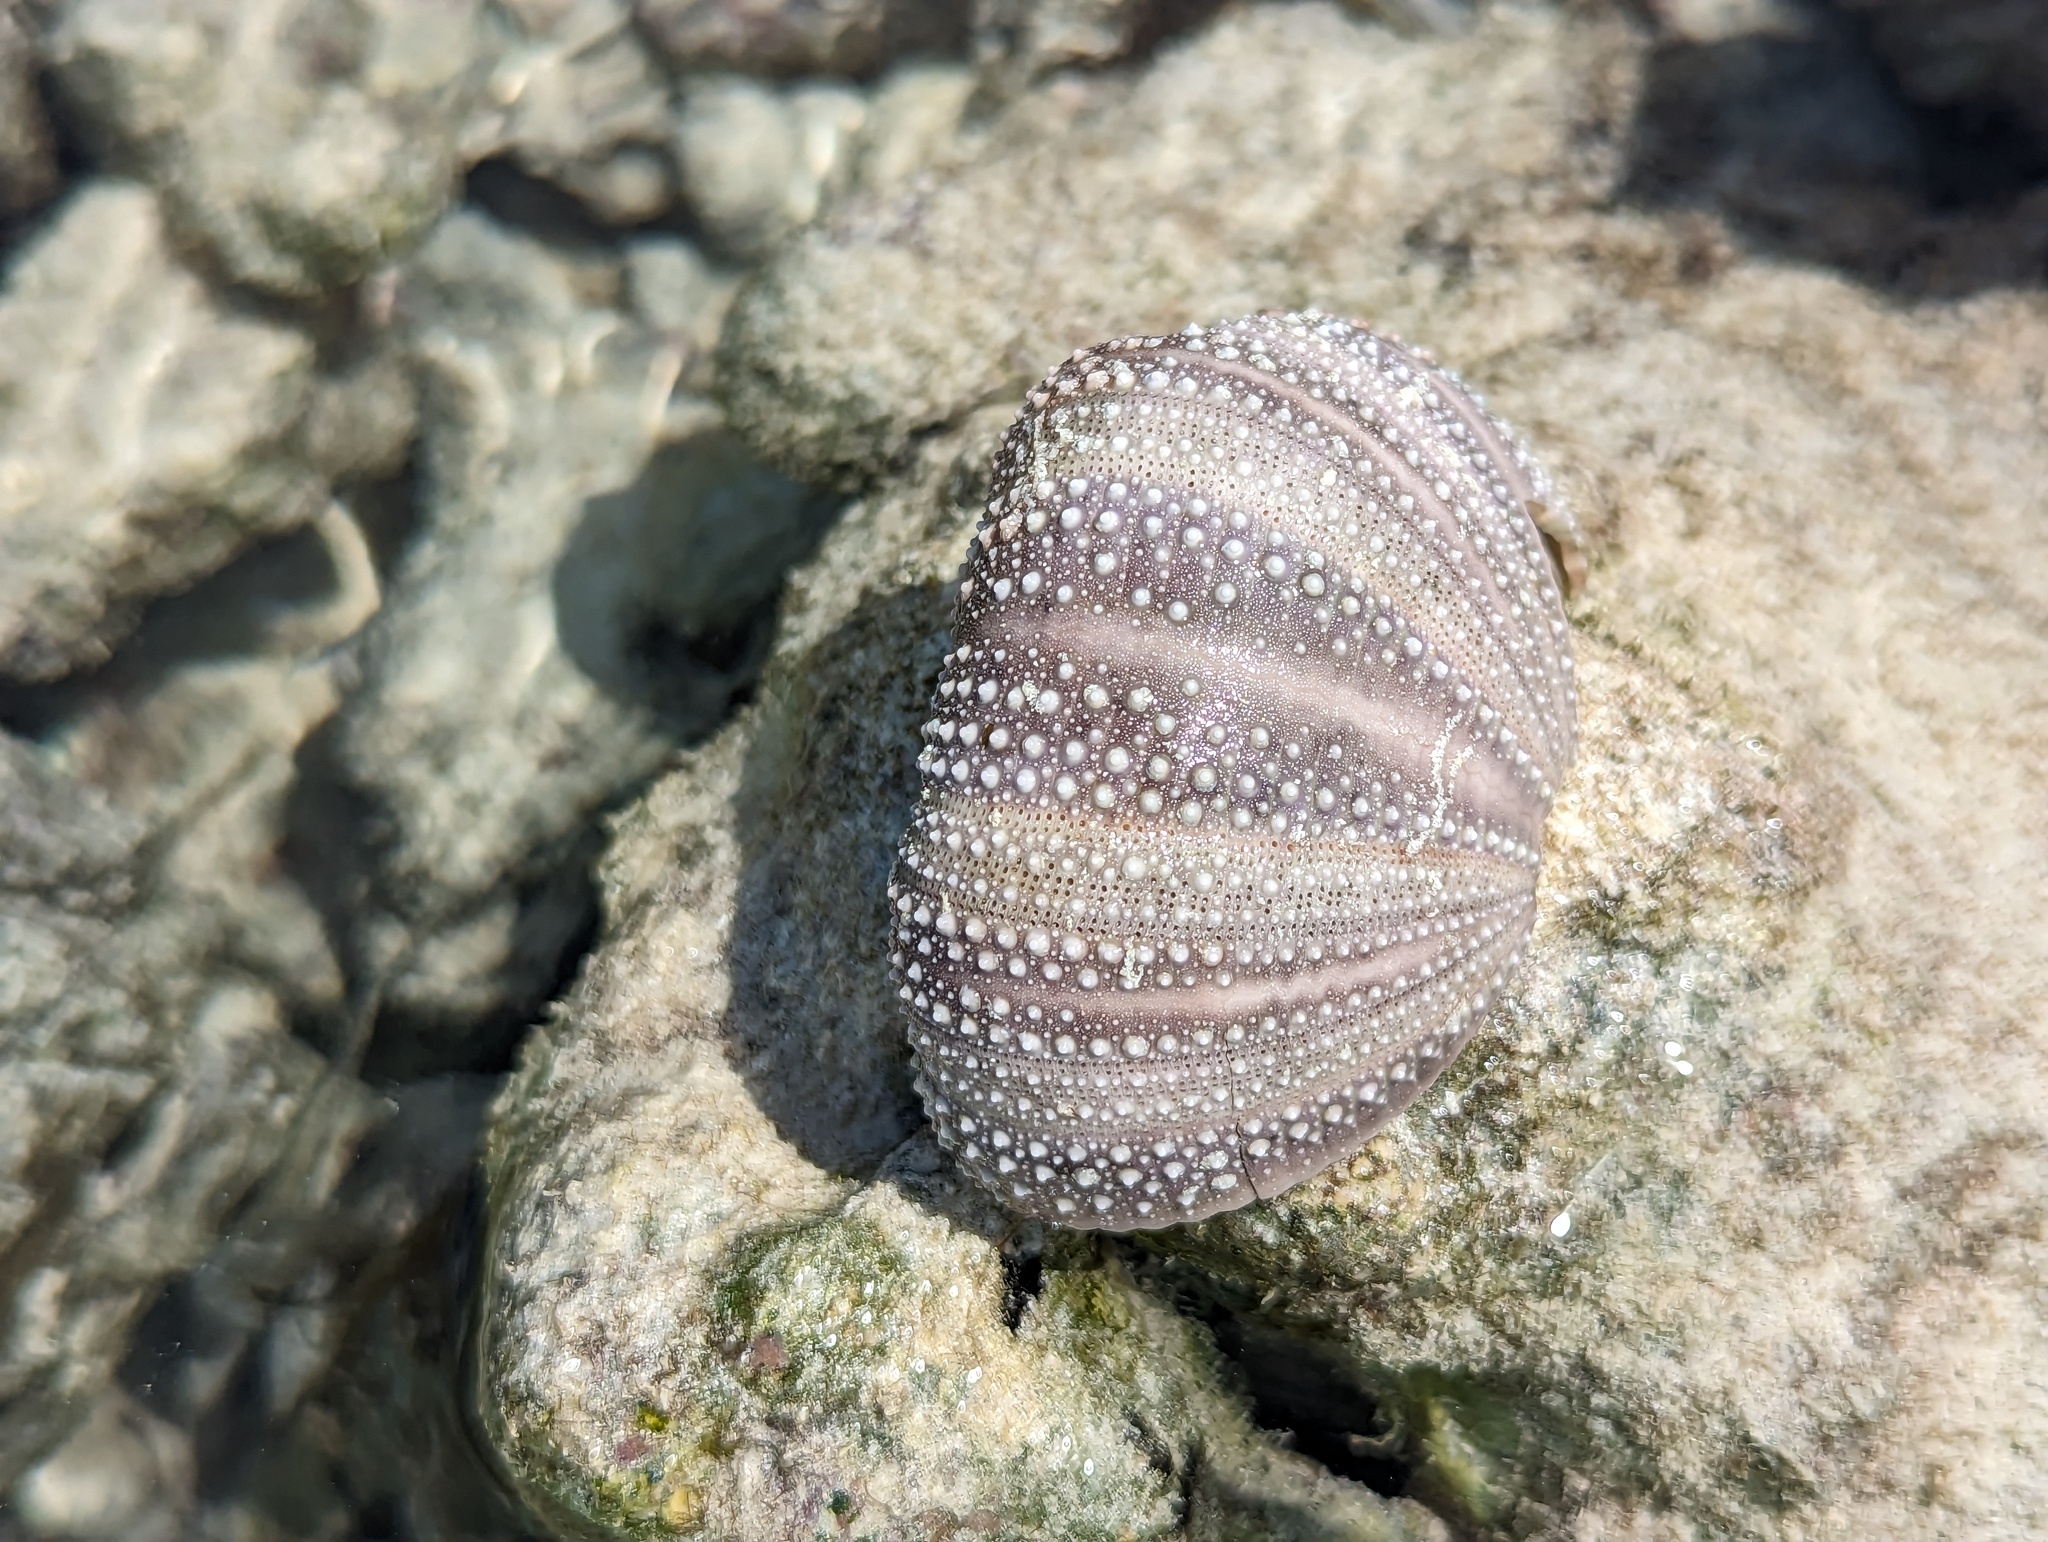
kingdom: Animalia
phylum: Echinodermata
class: Echinoidea
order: Camarodonta
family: Toxopneustidae
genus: Tripneustes
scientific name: Tripneustes gratilla
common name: Bischofsmützenseeigel
